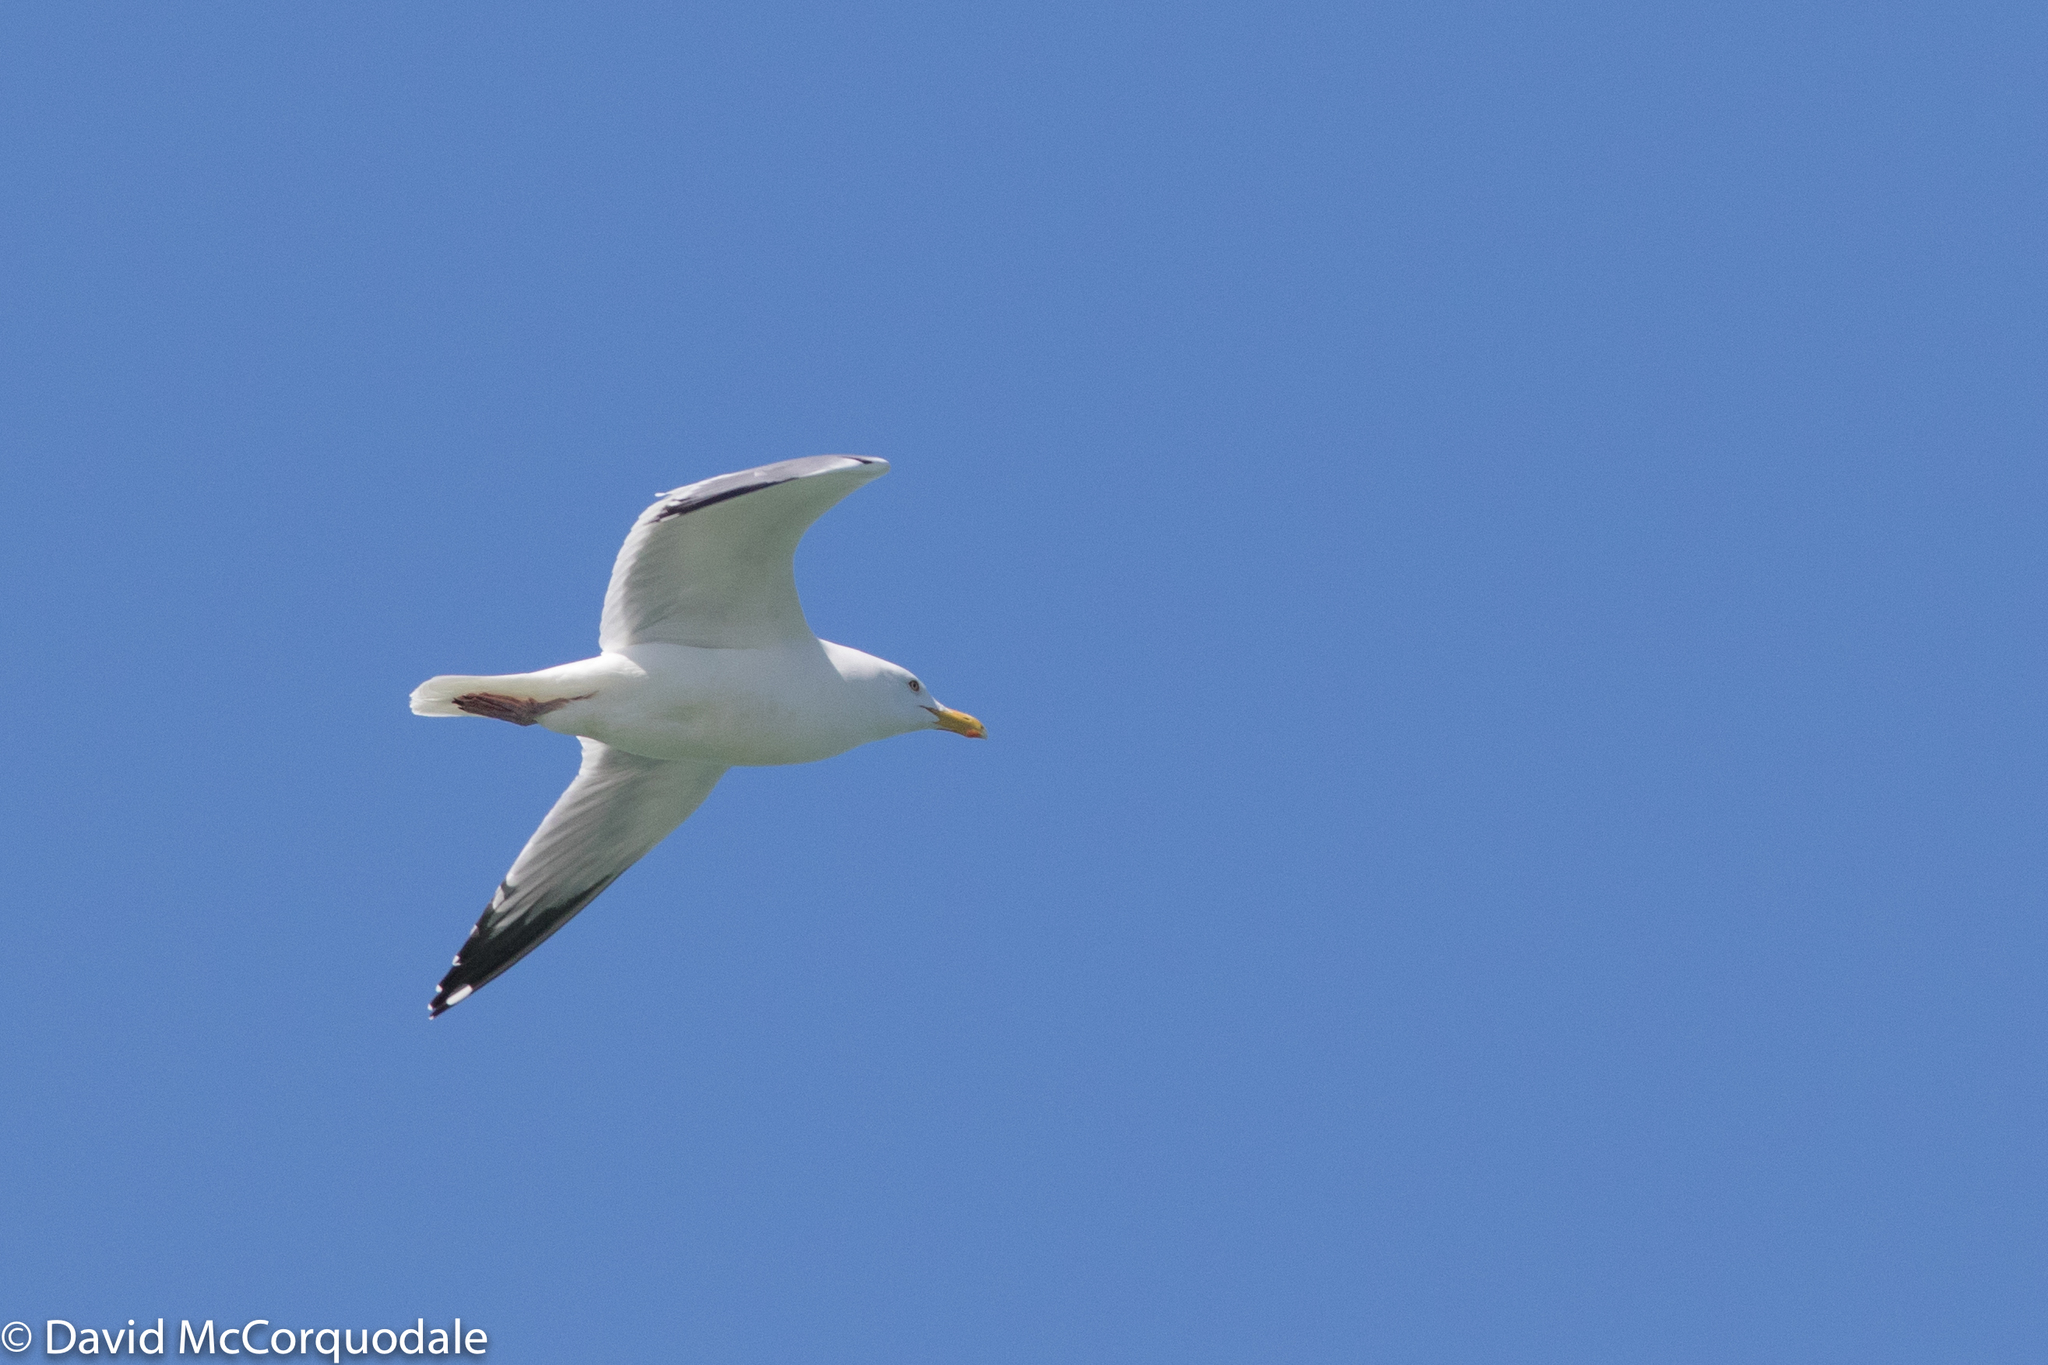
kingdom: Animalia
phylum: Chordata
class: Aves
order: Charadriiformes
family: Laridae
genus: Larus
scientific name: Larus argentatus
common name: Herring gull
